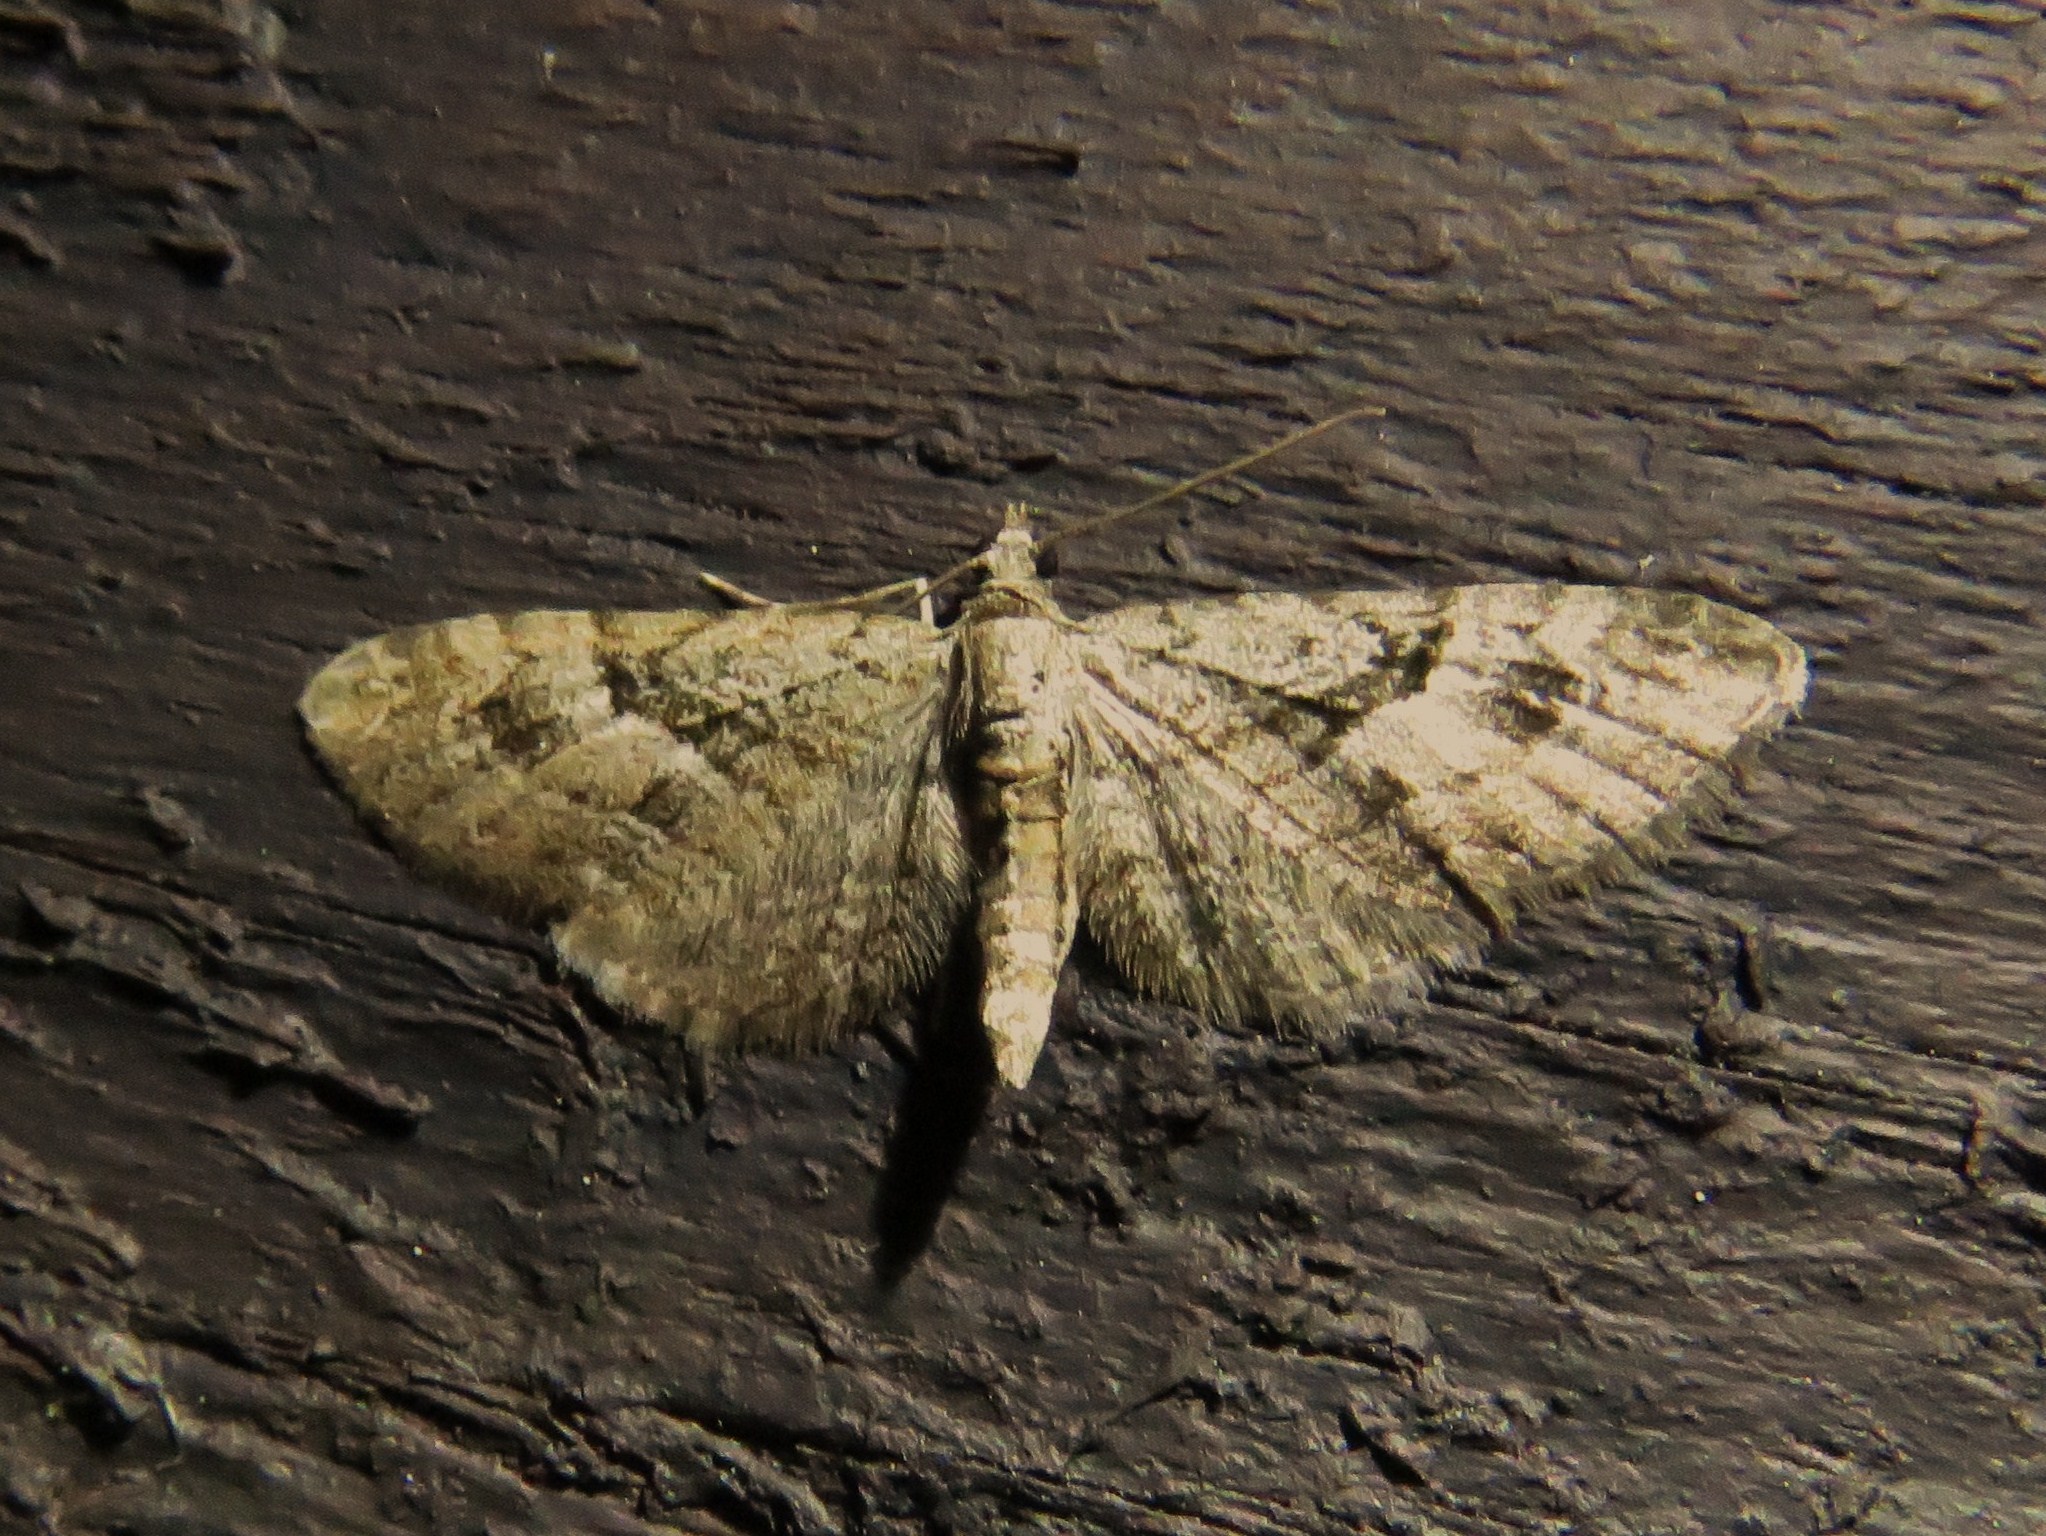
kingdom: Animalia
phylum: Arthropoda
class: Insecta
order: Lepidoptera
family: Geometridae
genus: Eupithecia
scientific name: Eupithecia pusillata
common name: Juniper pug
